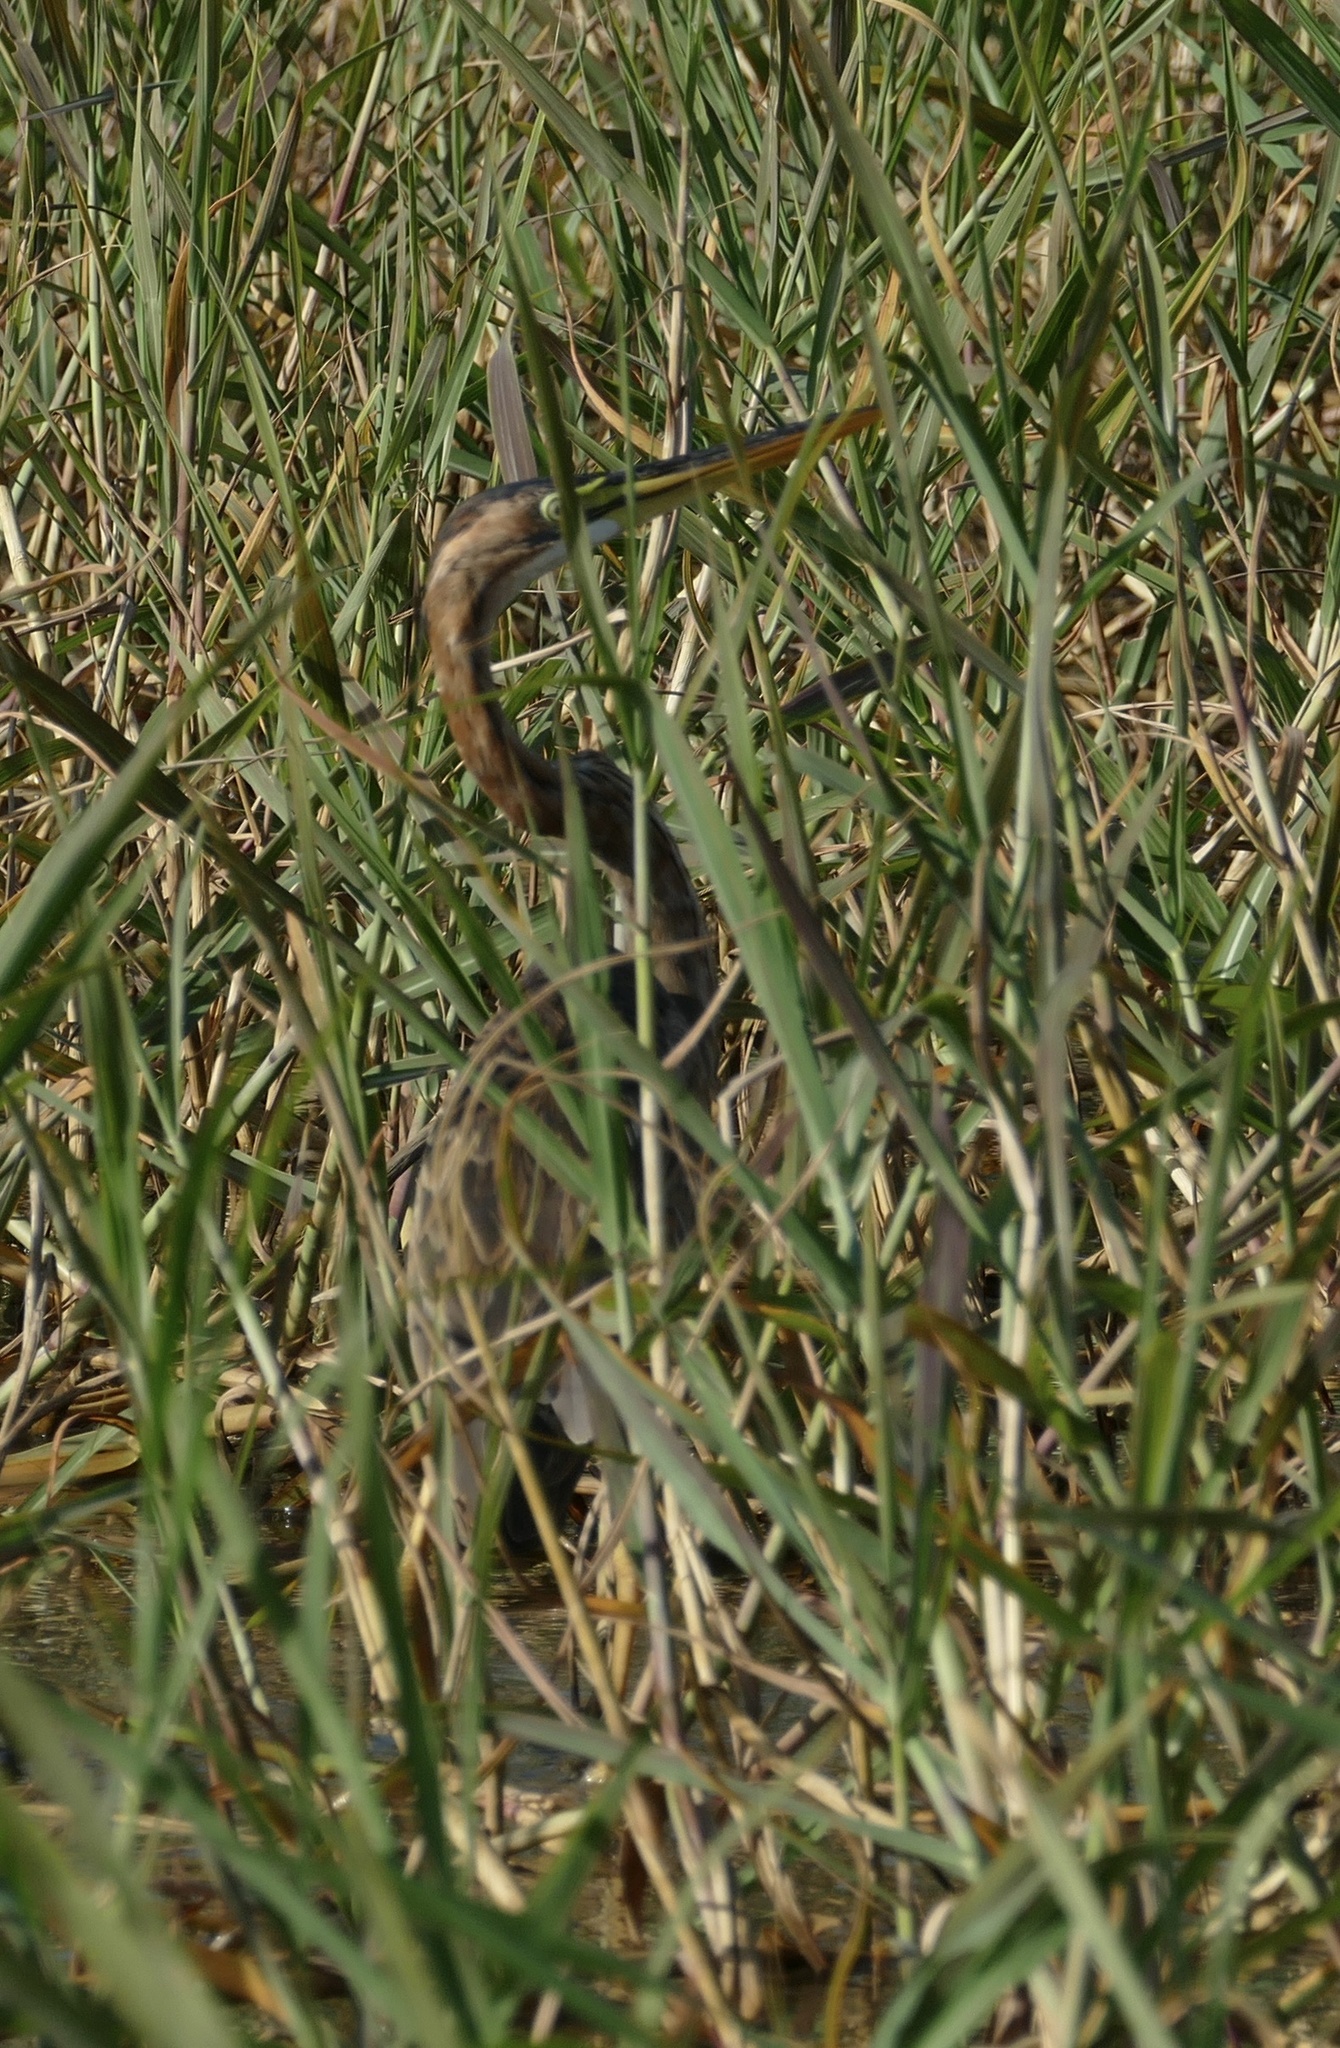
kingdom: Animalia
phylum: Chordata
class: Aves
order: Pelecaniformes
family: Ardeidae
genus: Ardea
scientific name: Ardea purpurea
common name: Purple heron
